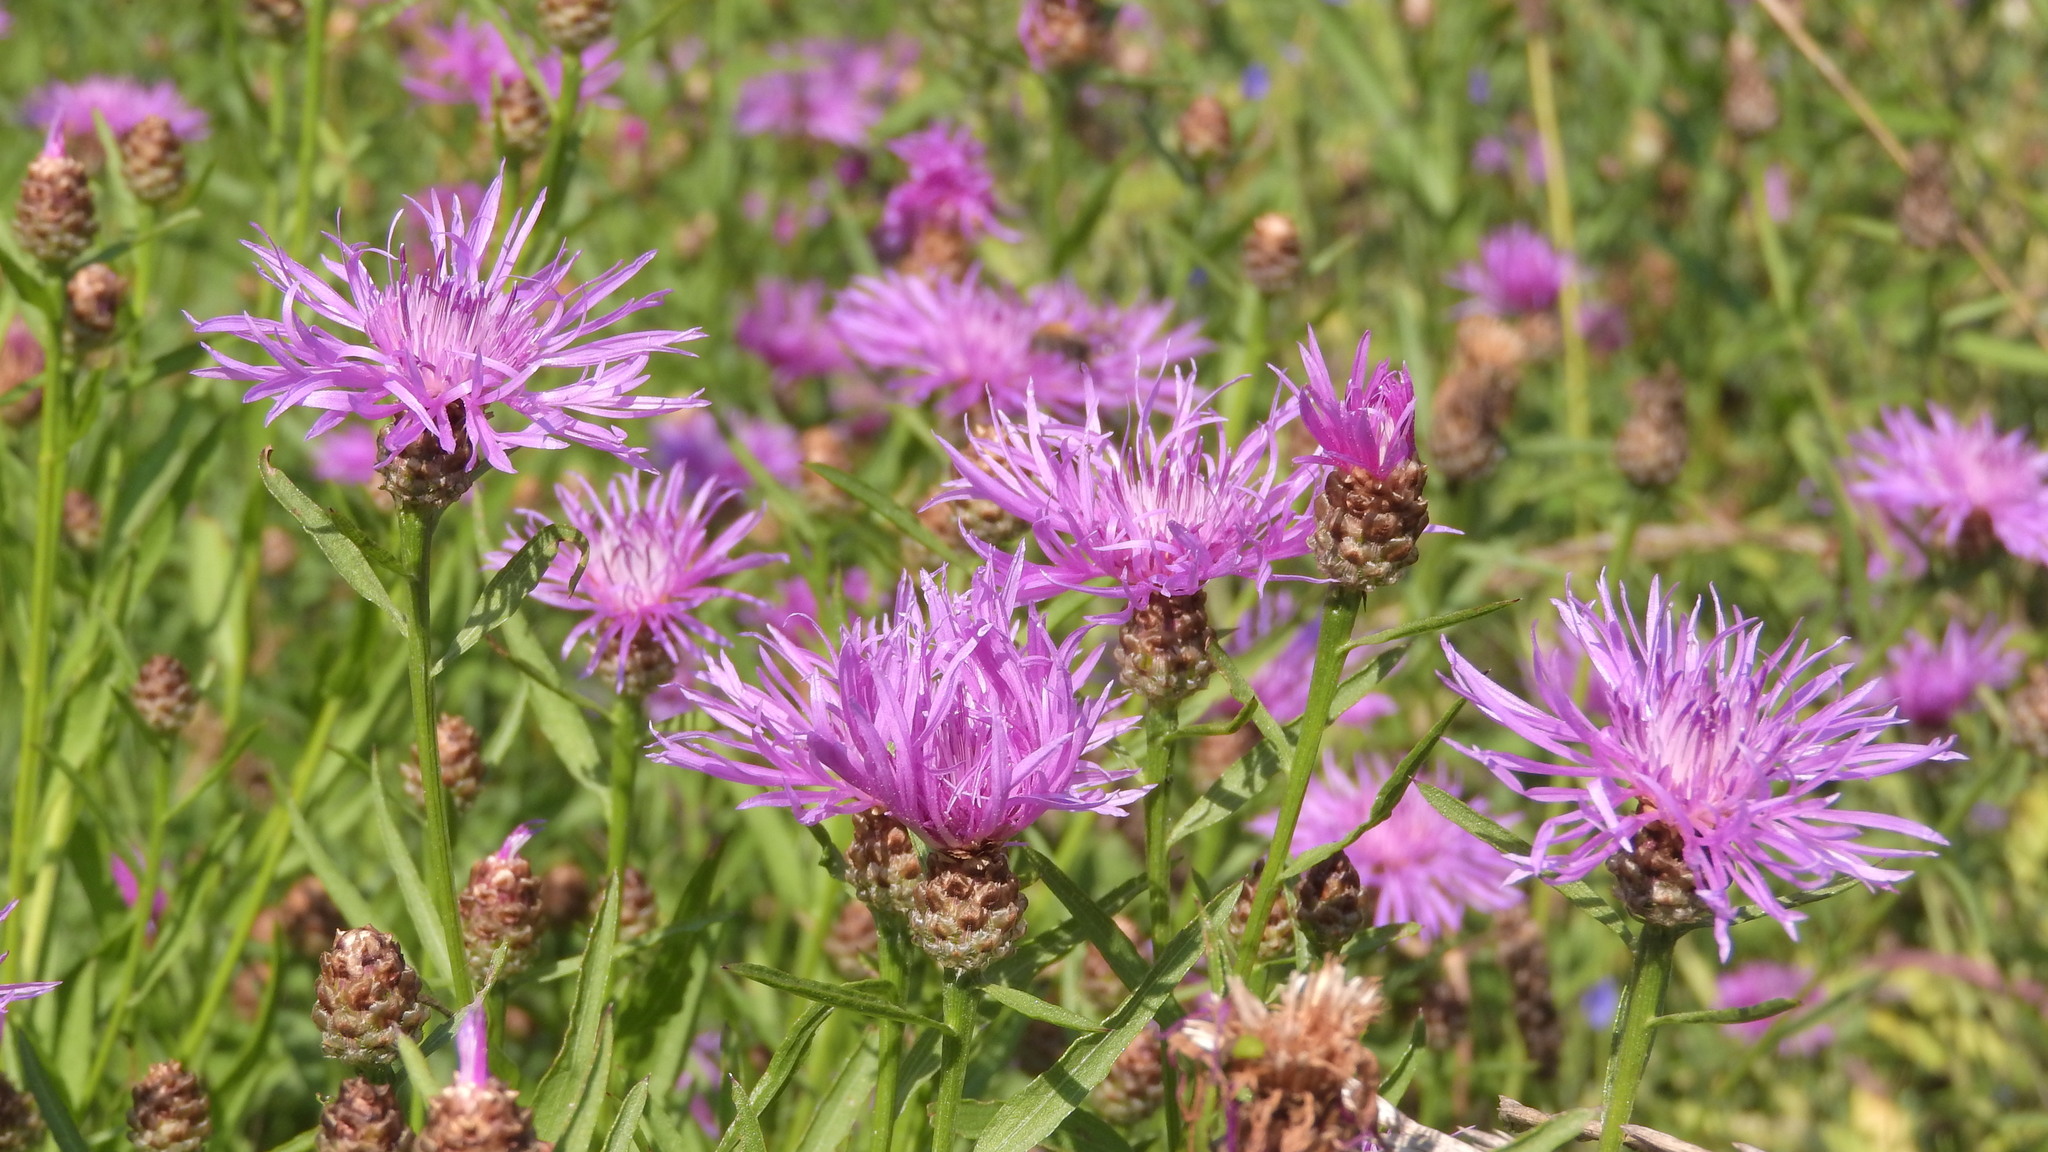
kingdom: Plantae
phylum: Tracheophyta
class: Magnoliopsida
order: Asterales
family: Asteraceae
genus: Centaurea
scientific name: Centaurea jacea
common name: Brown knapweed
